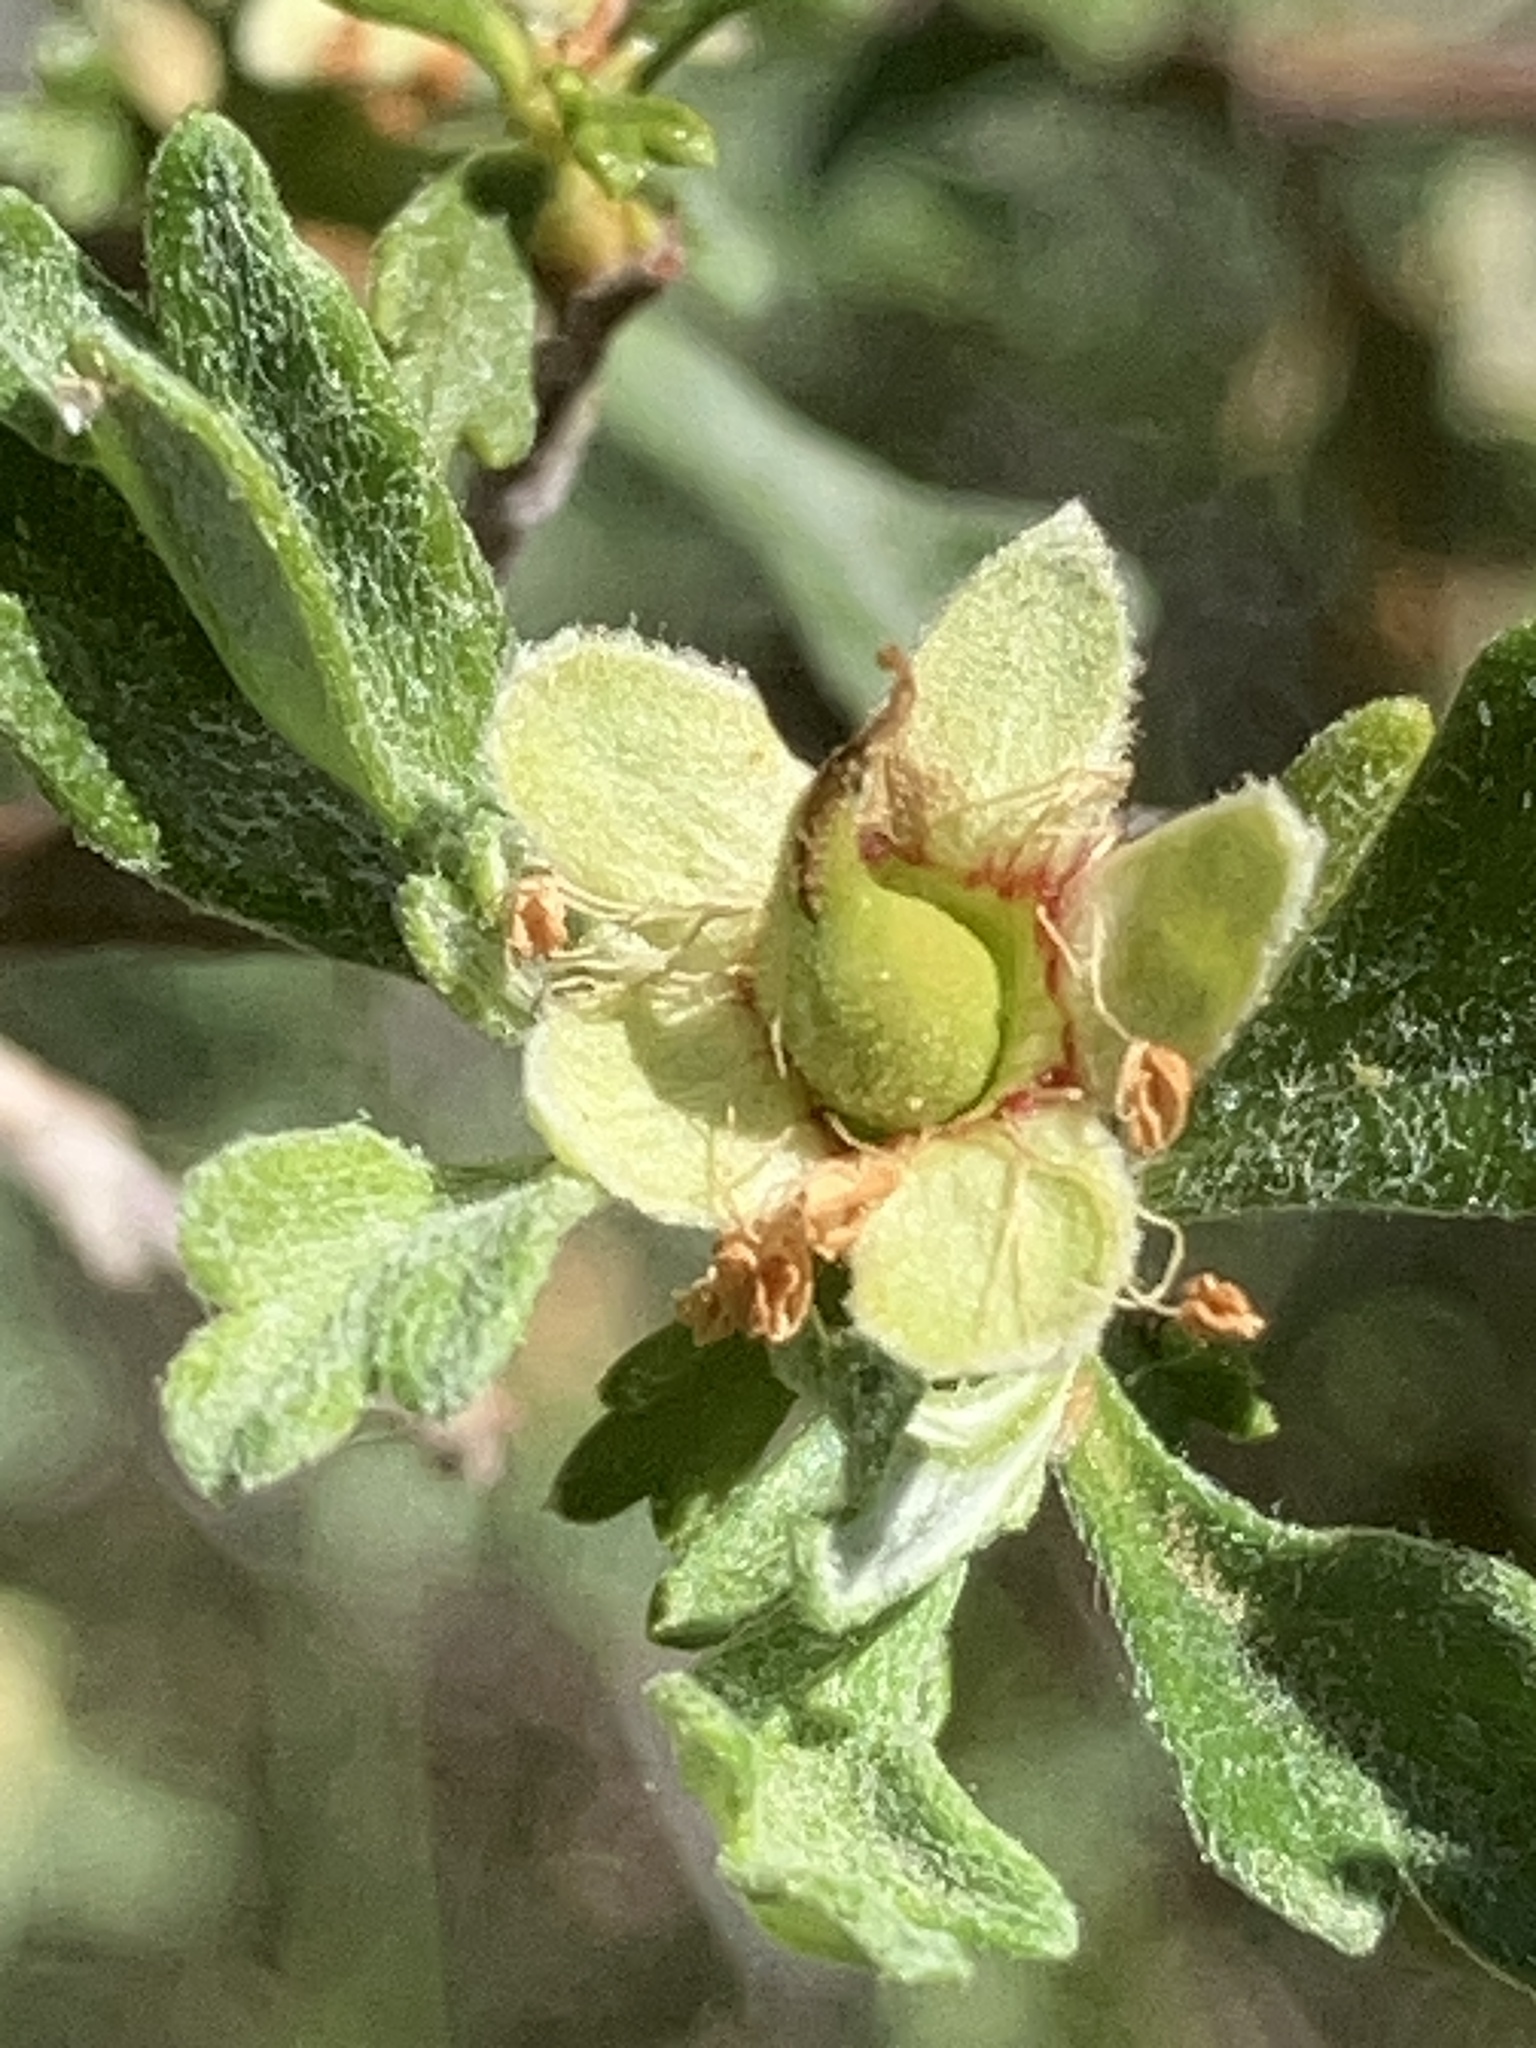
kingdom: Plantae
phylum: Tracheophyta
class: Magnoliopsida
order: Rosales
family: Rosaceae
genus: Purshia
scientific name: Purshia tridentata
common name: Antelope bitterbrush
